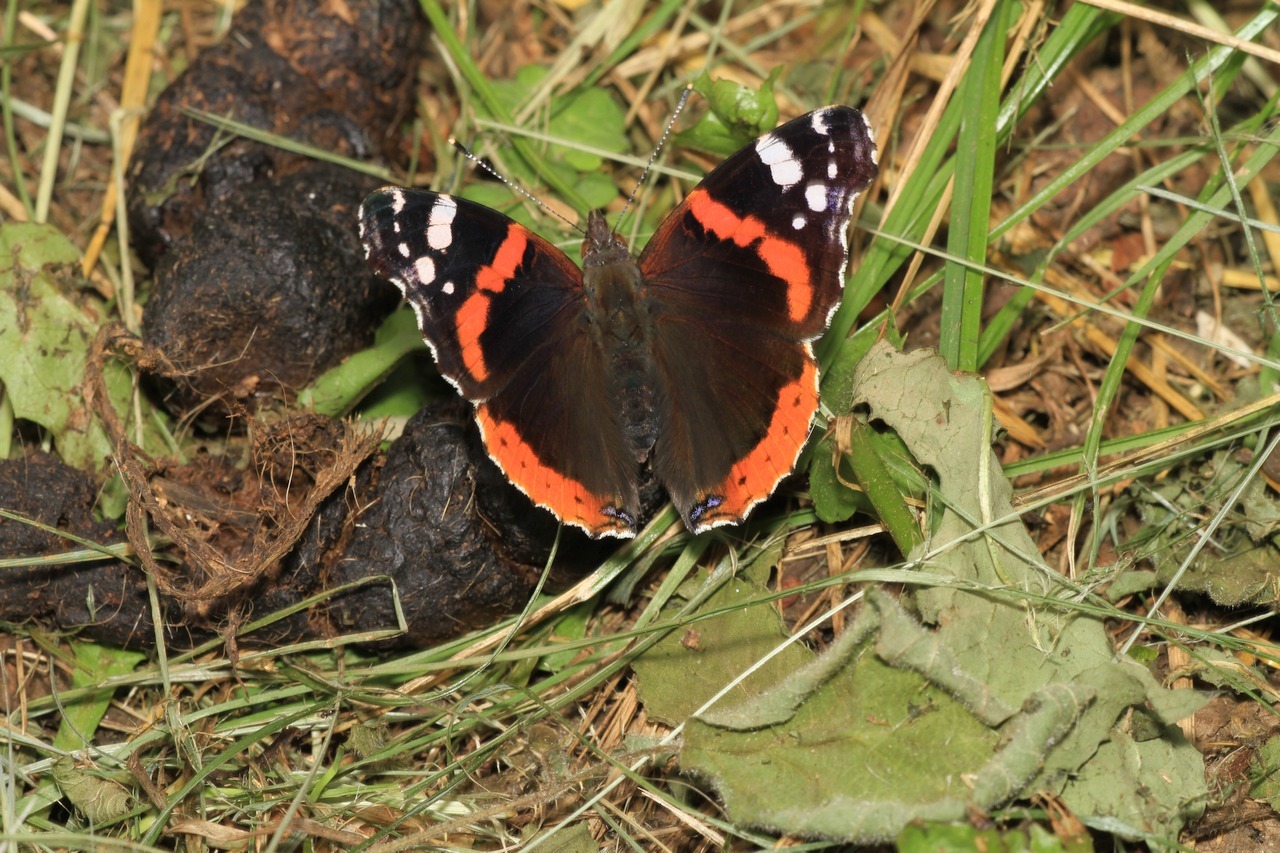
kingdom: Animalia
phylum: Arthropoda
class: Insecta
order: Lepidoptera
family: Nymphalidae
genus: Vanessa
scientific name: Vanessa atalanta
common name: Red admiral
